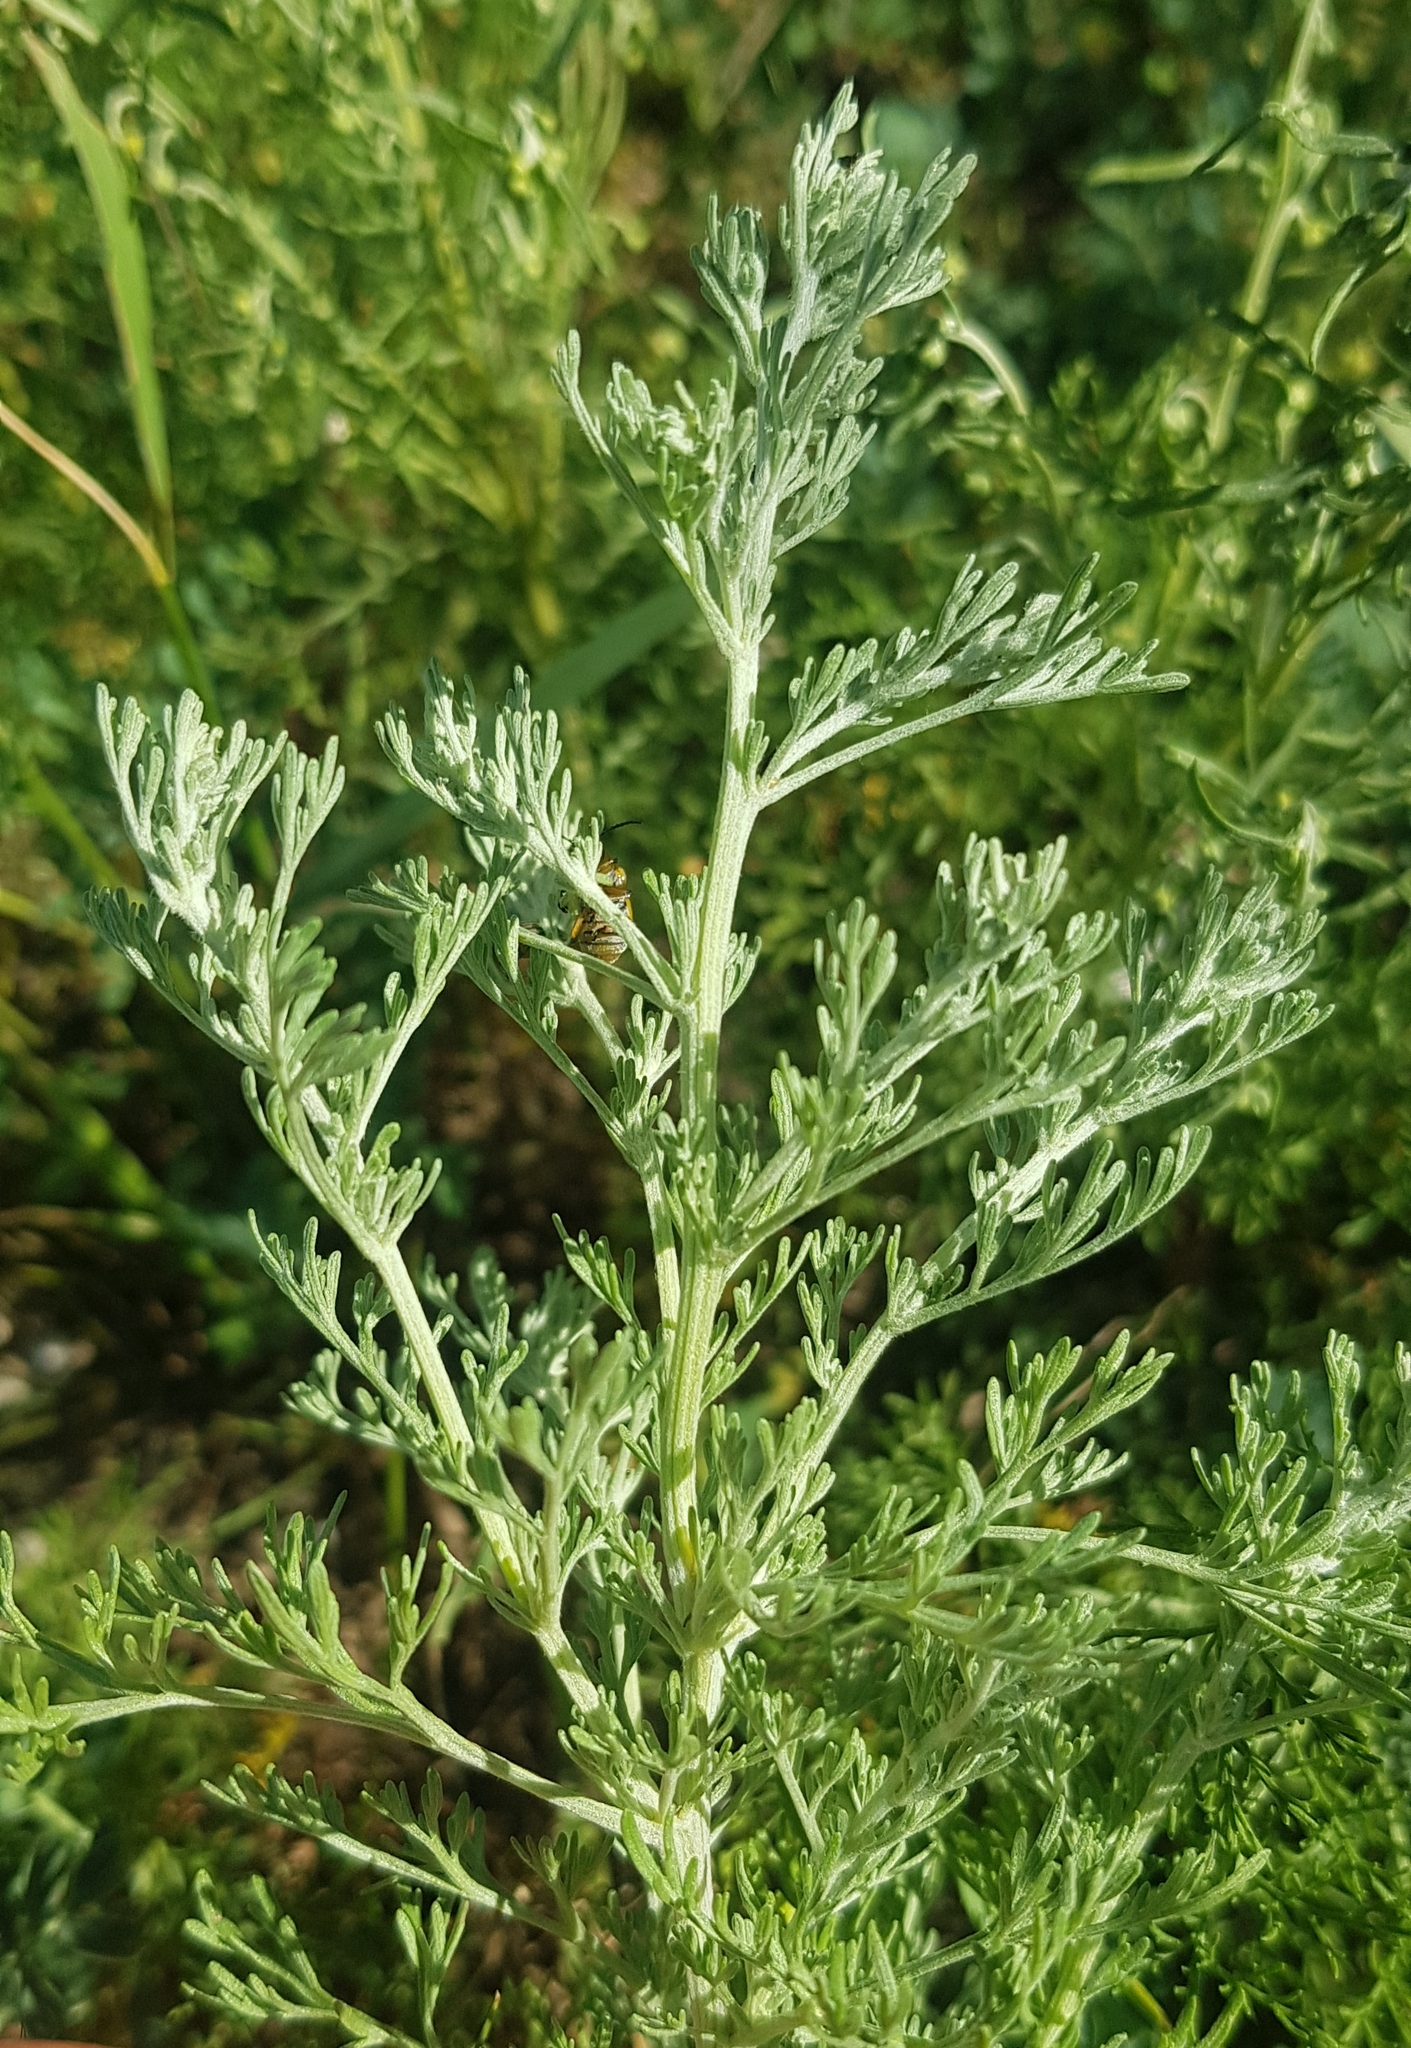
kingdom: Plantae
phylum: Tracheophyta
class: Magnoliopsida
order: Asterales
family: Asteraceae
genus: Artemisia
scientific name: Artemisia sieversiana
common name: Sieversian wormwood
